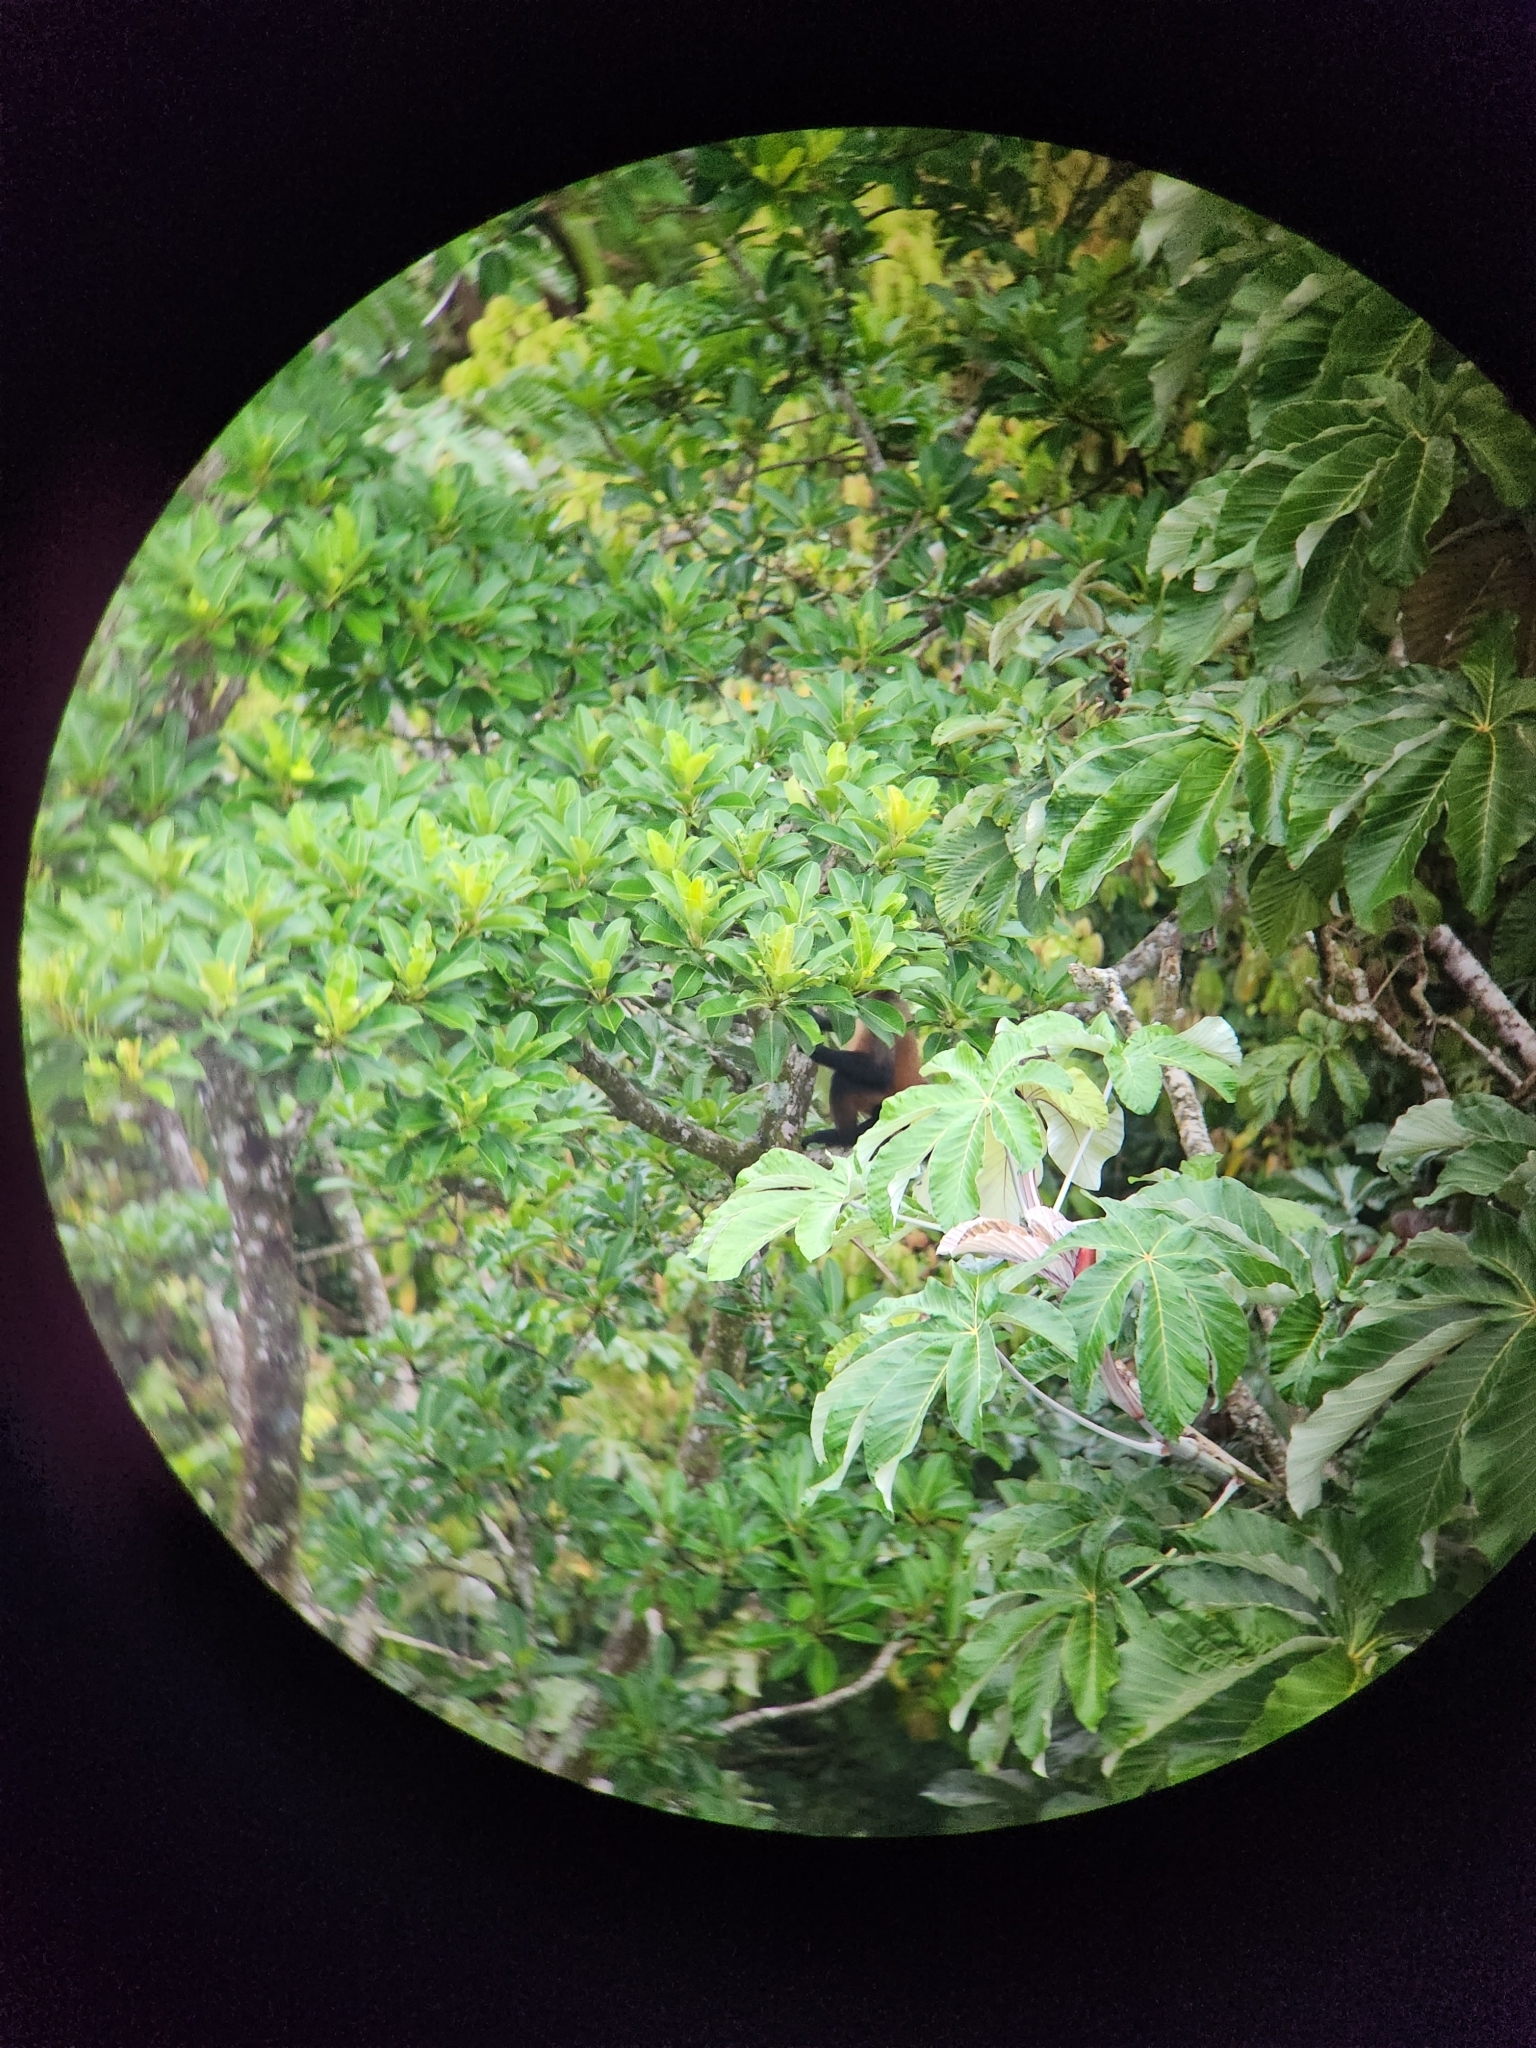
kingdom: Animalia
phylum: Chordata
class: Mammalia
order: Primates
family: Atelidae
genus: Ateles
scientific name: Ateles geoffroyi
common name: Black-handed spider monkey
